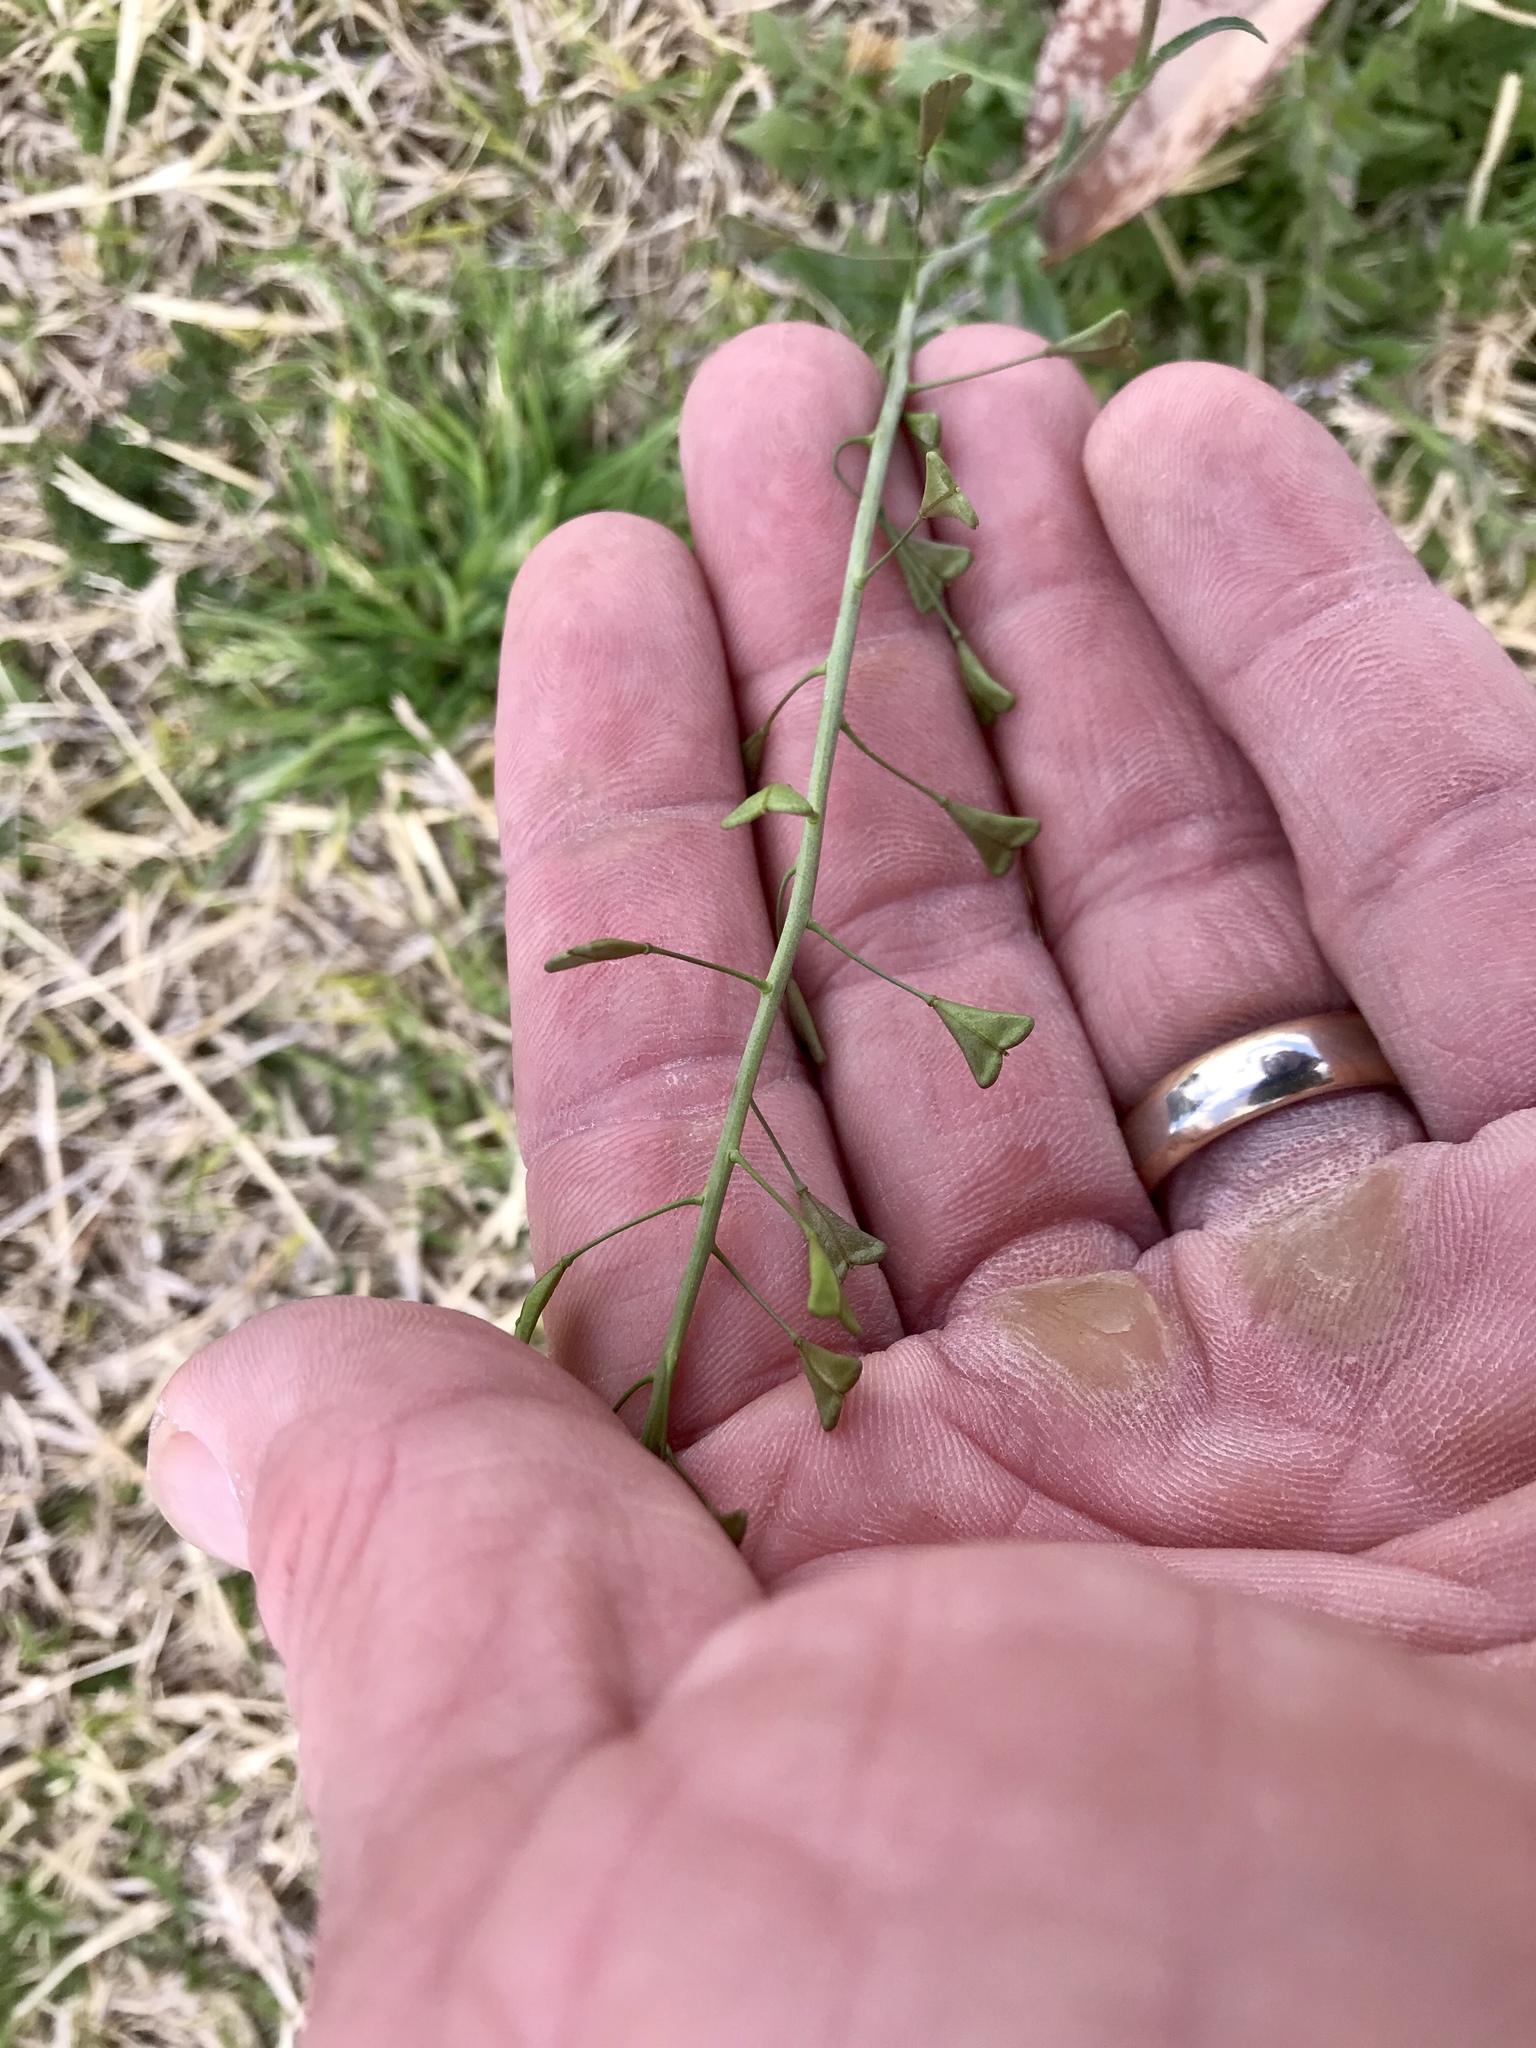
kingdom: Plantae
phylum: Tracheophyta
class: Magnoliopsida
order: Brassicales
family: Brassicaceae
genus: Capsella
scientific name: Capsella bursa-pastoris
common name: Shepherd's purse
